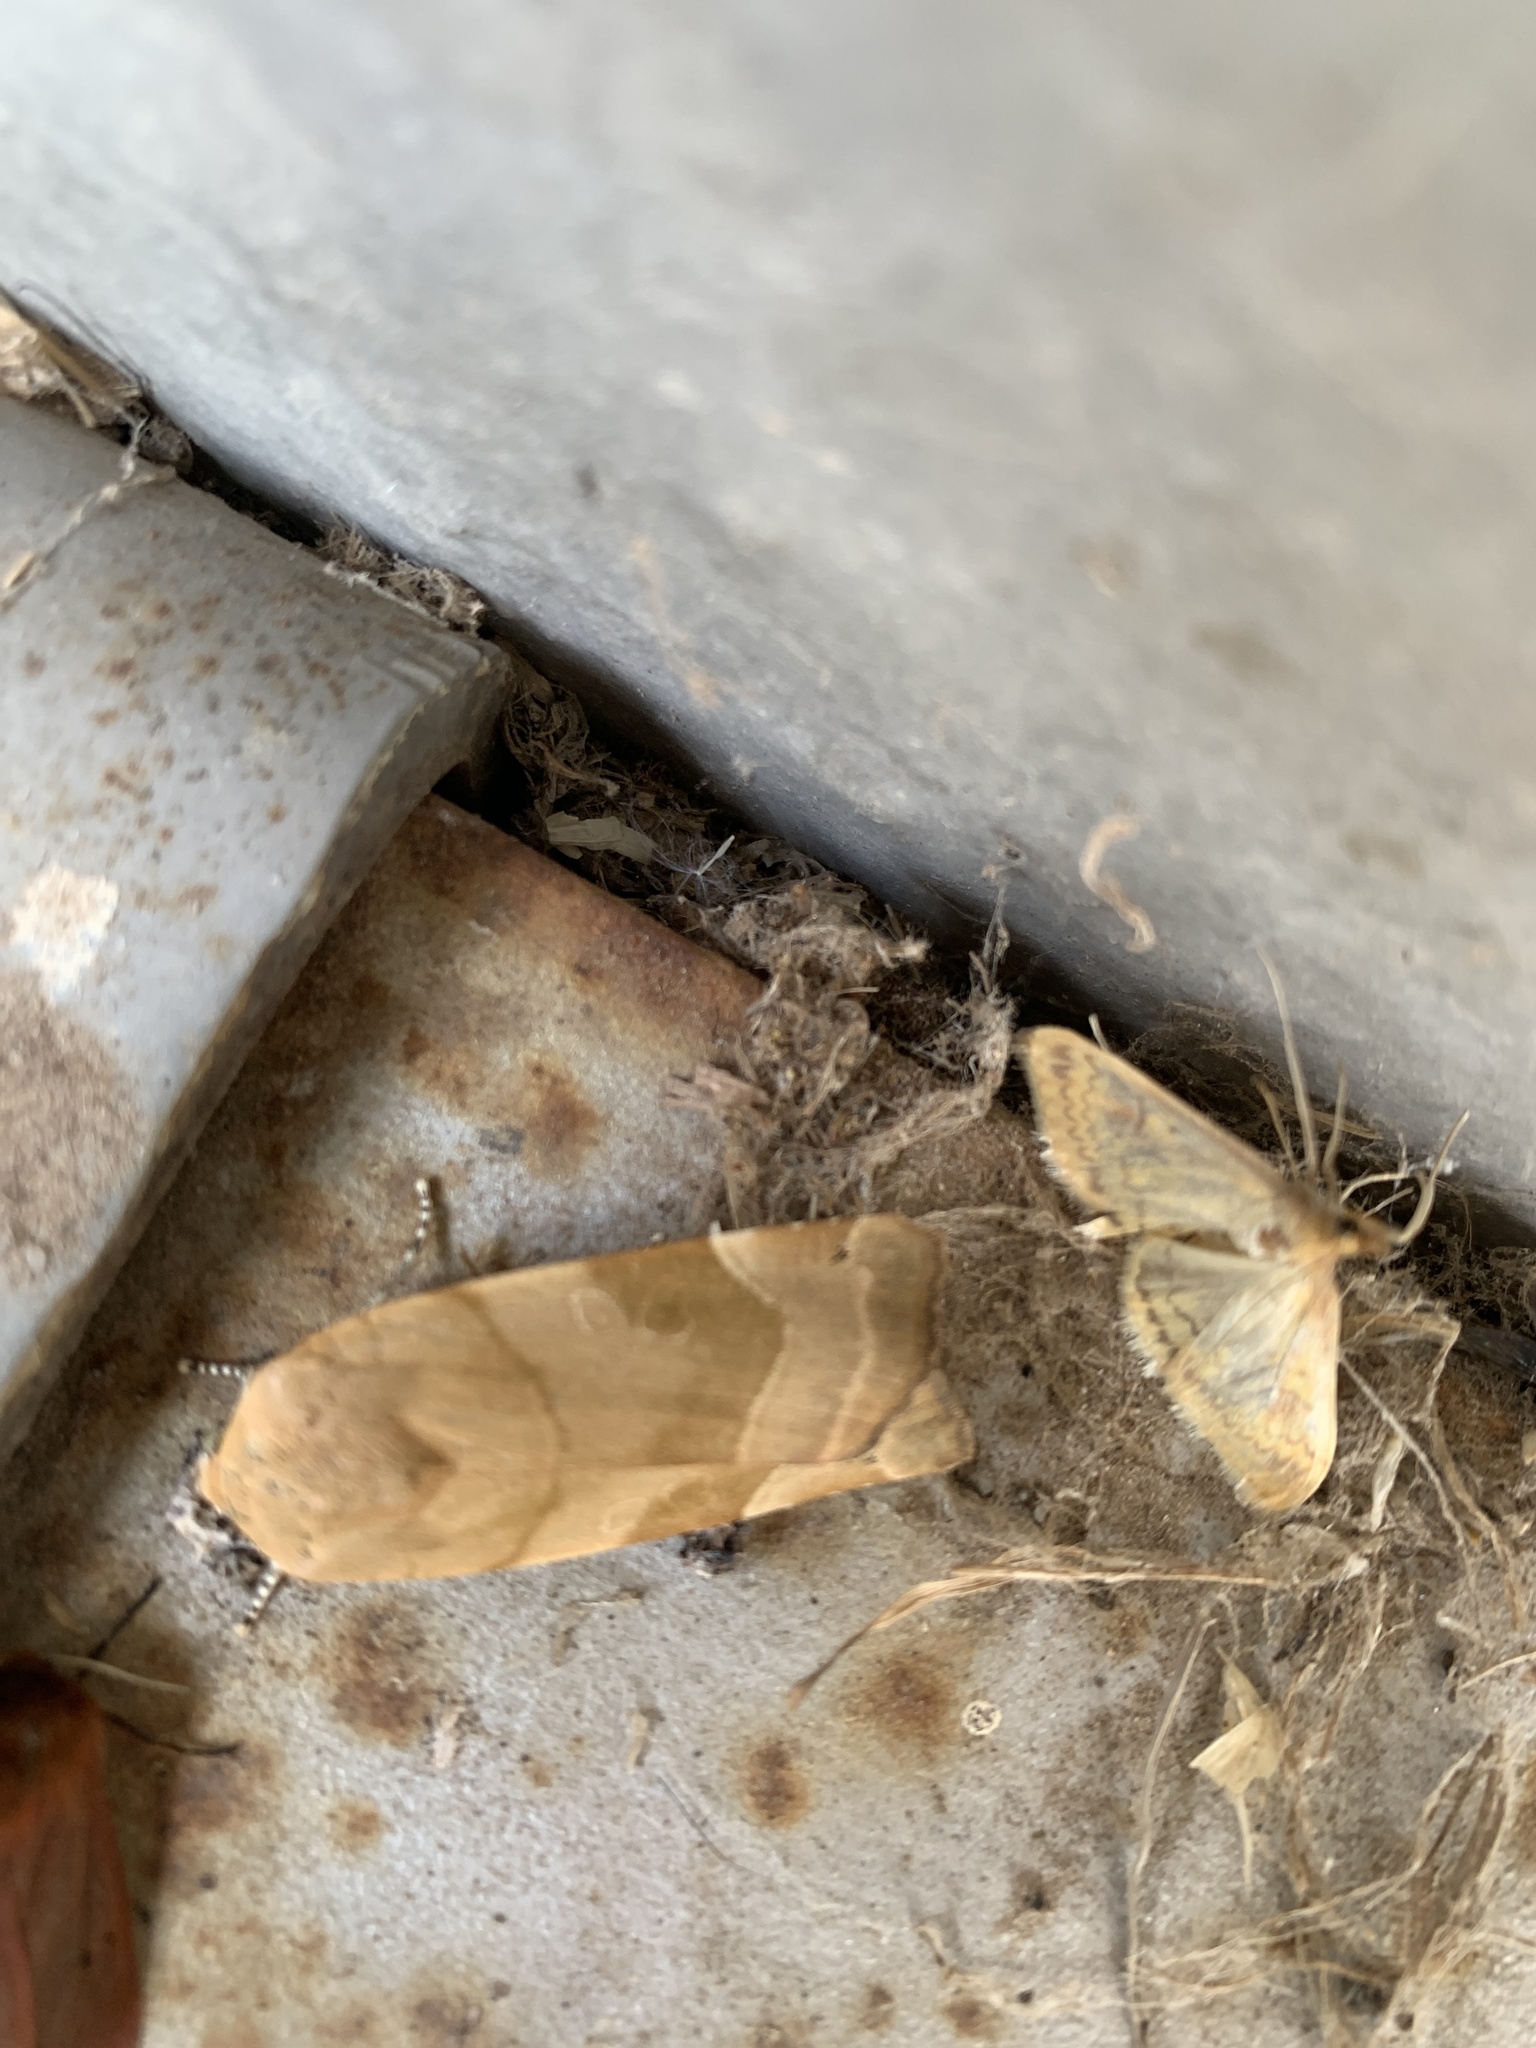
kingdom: Animalia
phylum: Arthropoda
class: Insecta
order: Lepidoptera
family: Noctuidae
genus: Noctua
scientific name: Noctua fimbriata
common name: Broad-bordered yellow underwing
